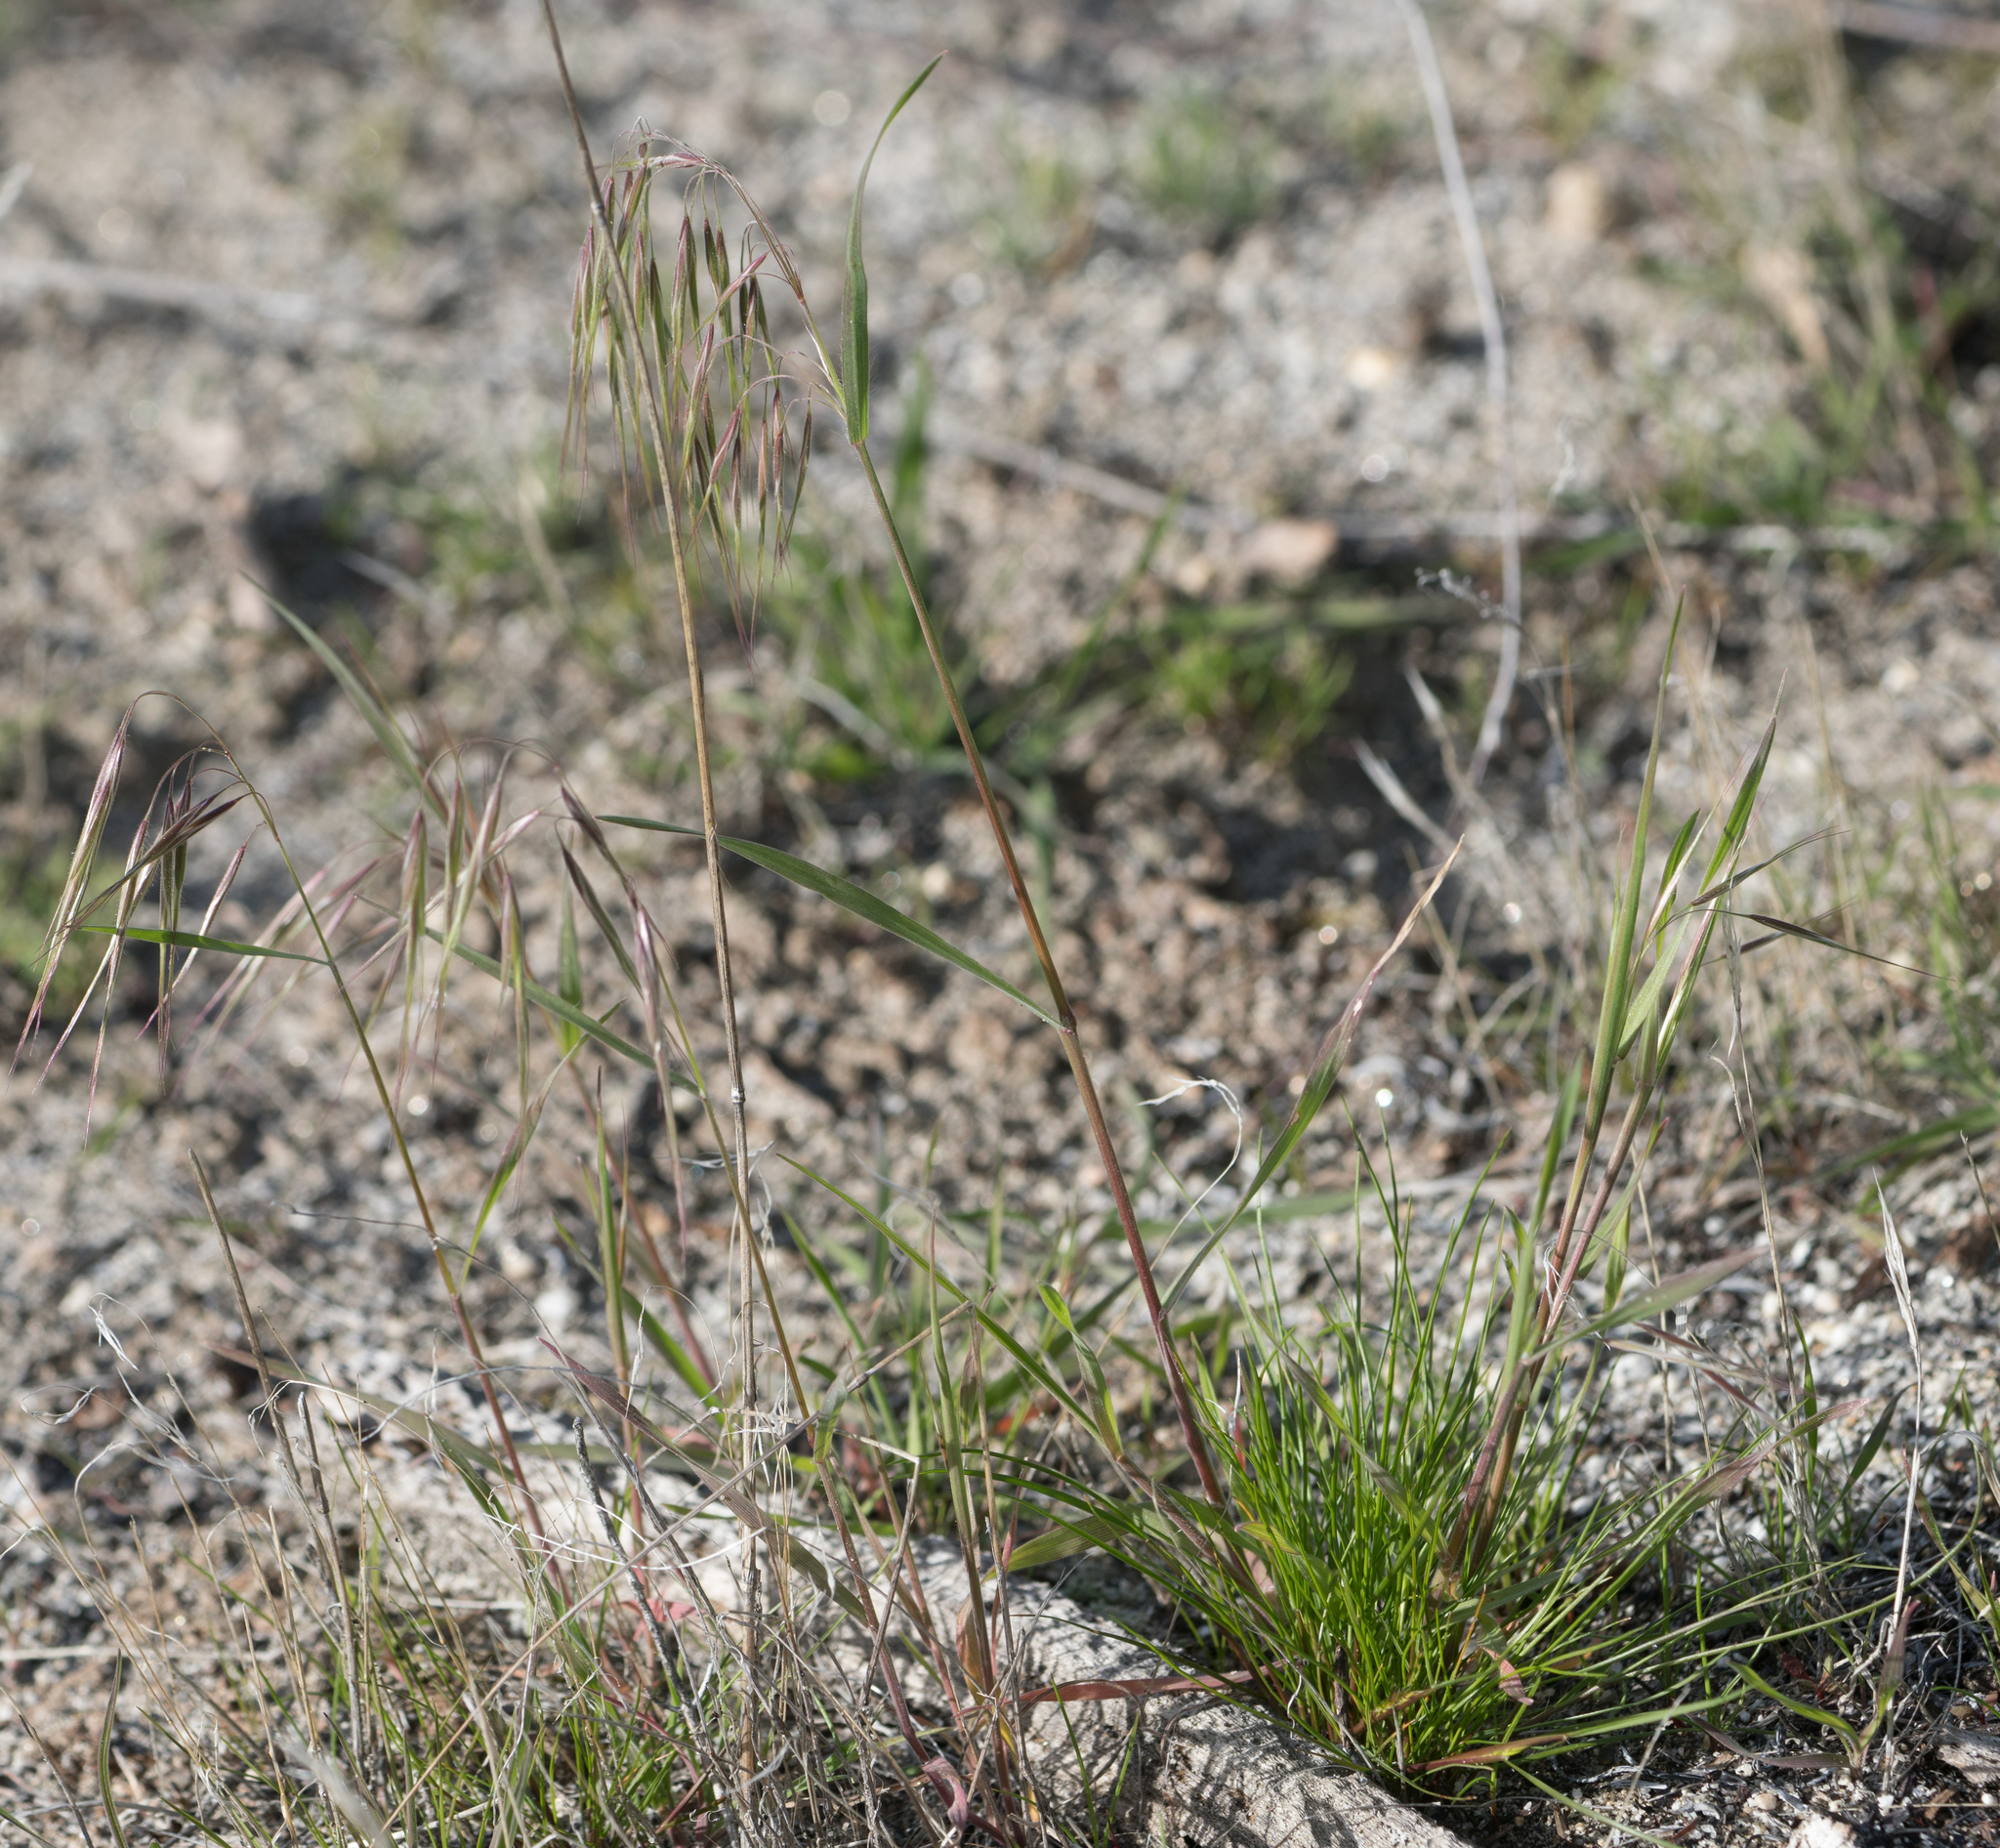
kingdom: Plantae
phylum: Tracheophyta
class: Liliopsida
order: Poales
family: Poaceae
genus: Bromus
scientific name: Bromus tectorum
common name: Cheatgrass
